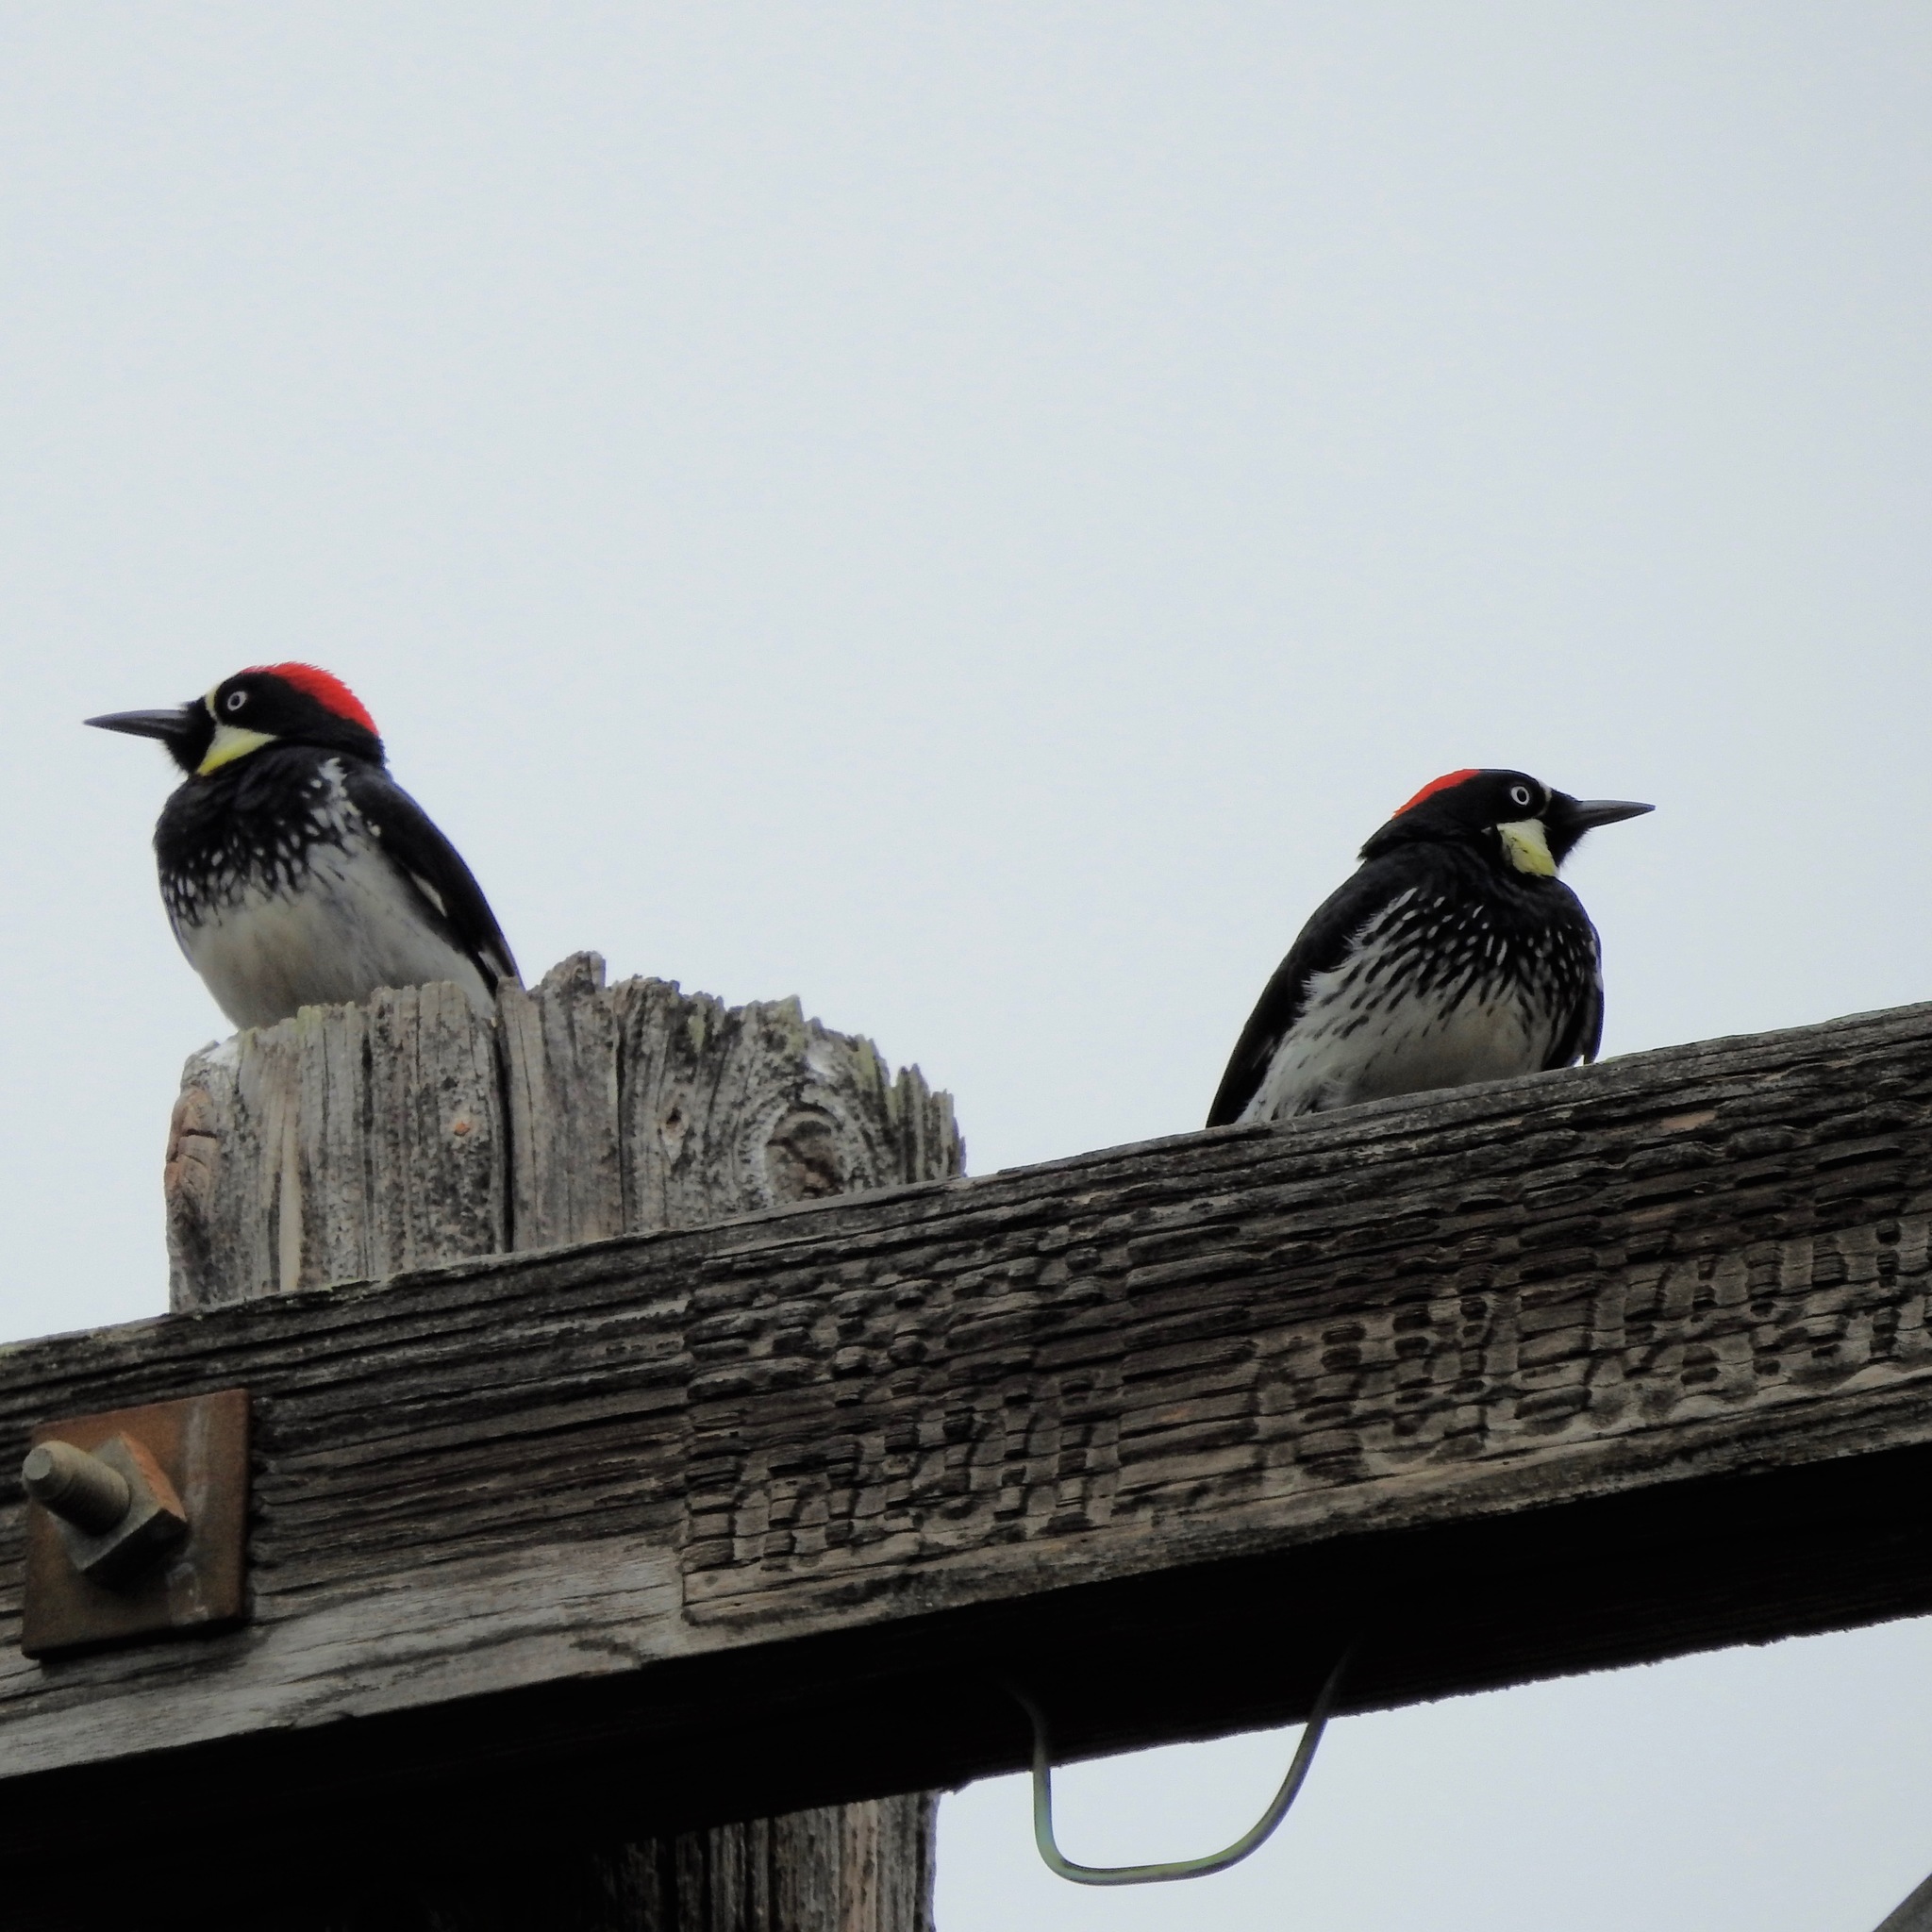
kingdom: Animalia
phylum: Chordata
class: Aves
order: Piciformes
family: Picidae
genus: Melanerpes
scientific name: Melanerpes formicivorus
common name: Acorn woodpecker
